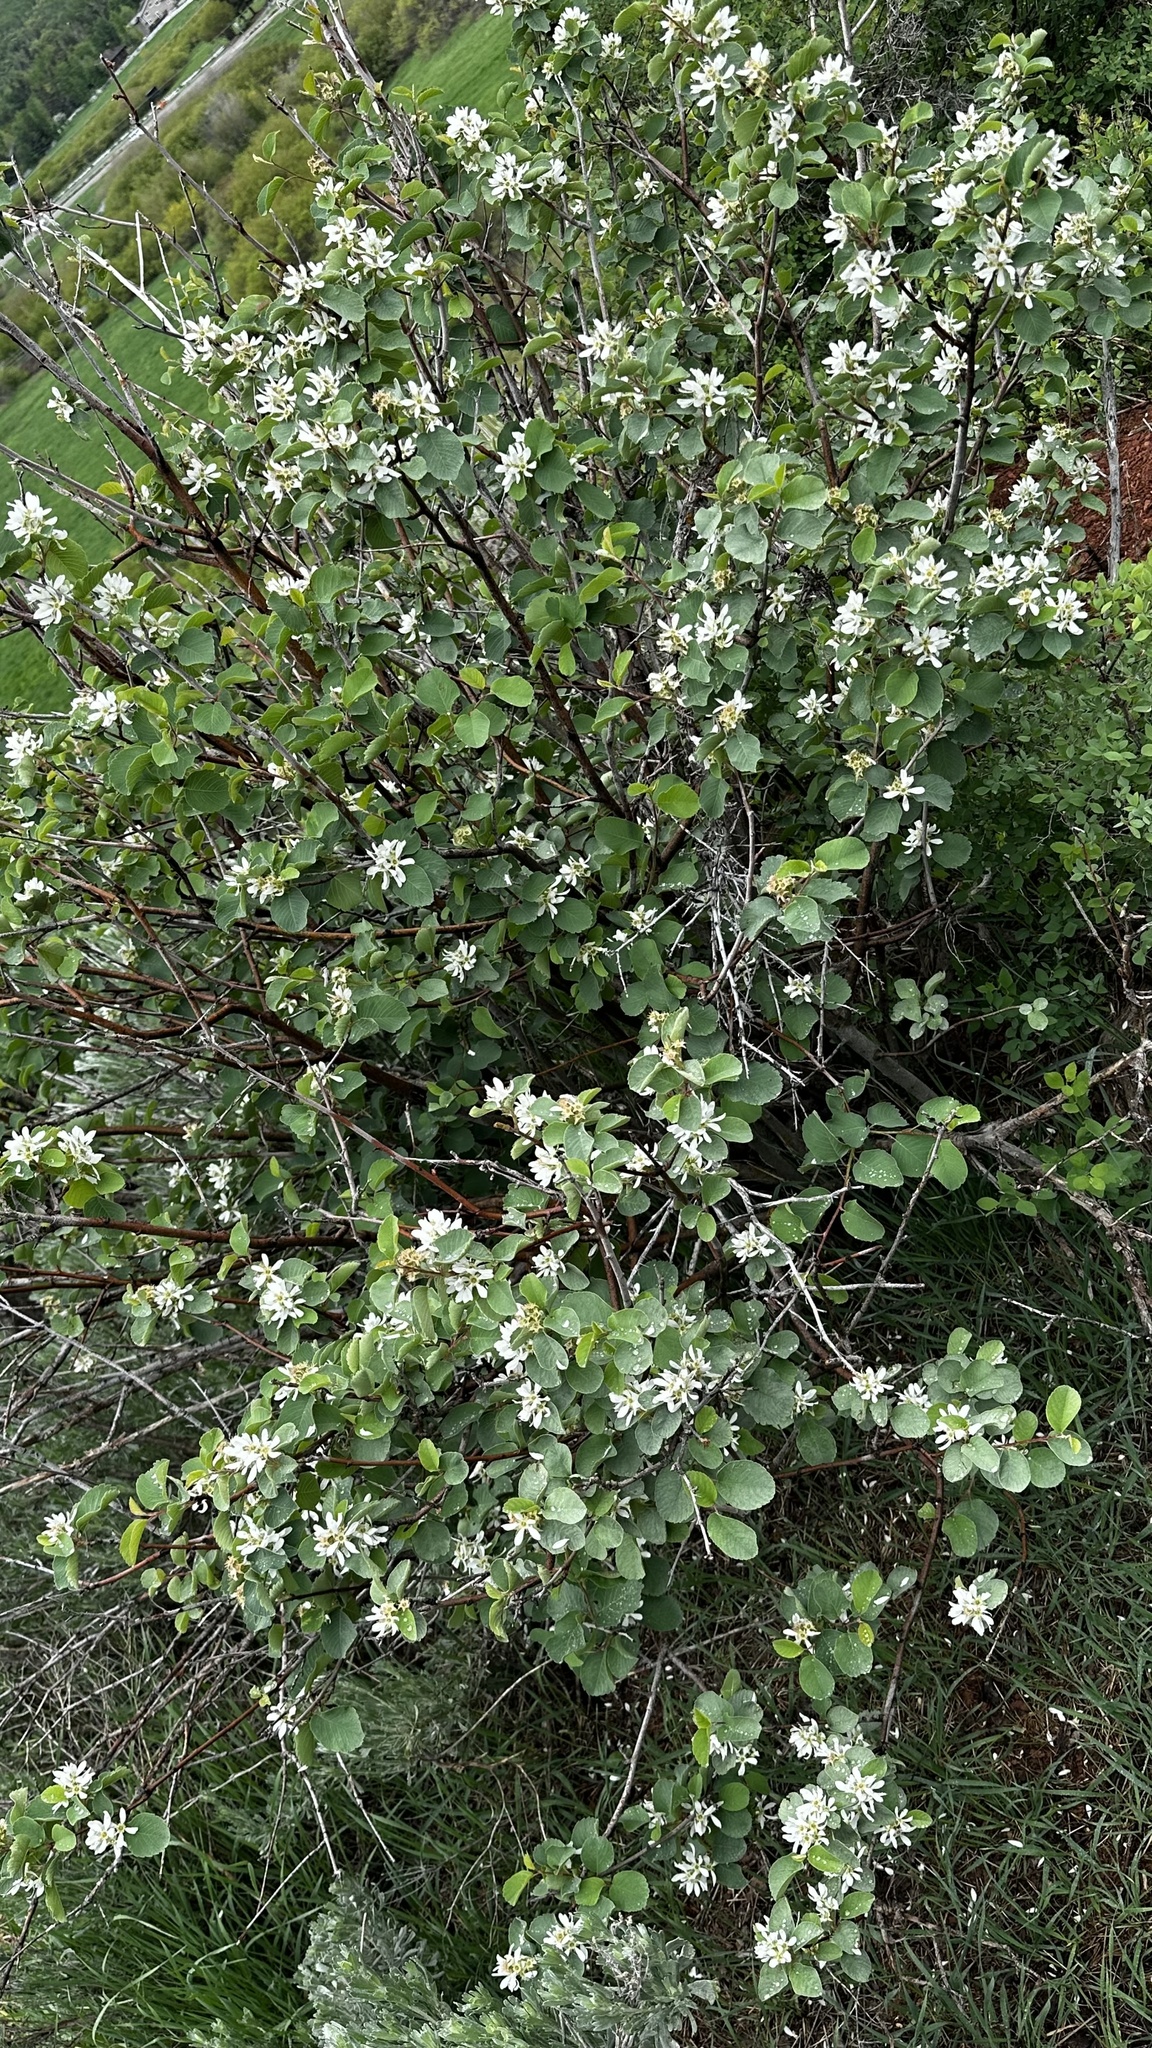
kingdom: Plantae
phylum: Tracheophyta
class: Magnoliopsida
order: Rosales
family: Rosaceae
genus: Amelanchier
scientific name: Amelanchier utahensis
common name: Utah serviceberry
